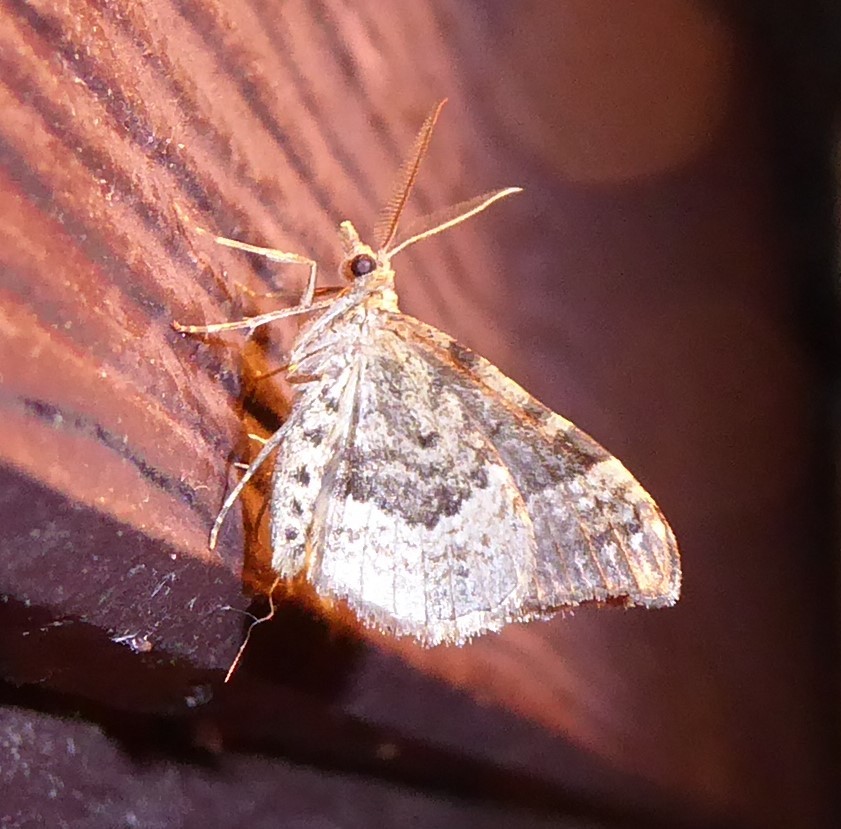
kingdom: Animalia
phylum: Arthropoda
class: Insecta
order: Lepidoptera
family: Geometridae
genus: Homodotis
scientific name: Homodotis falcata
